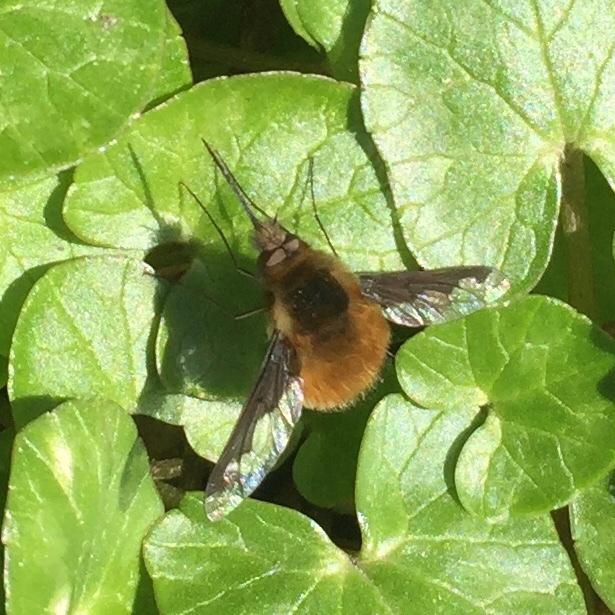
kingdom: Animalia
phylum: Arthropoda
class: Insecta
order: Diptera
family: Bombyliidae
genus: Bombylius
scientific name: Bombylius major
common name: Bee fly
